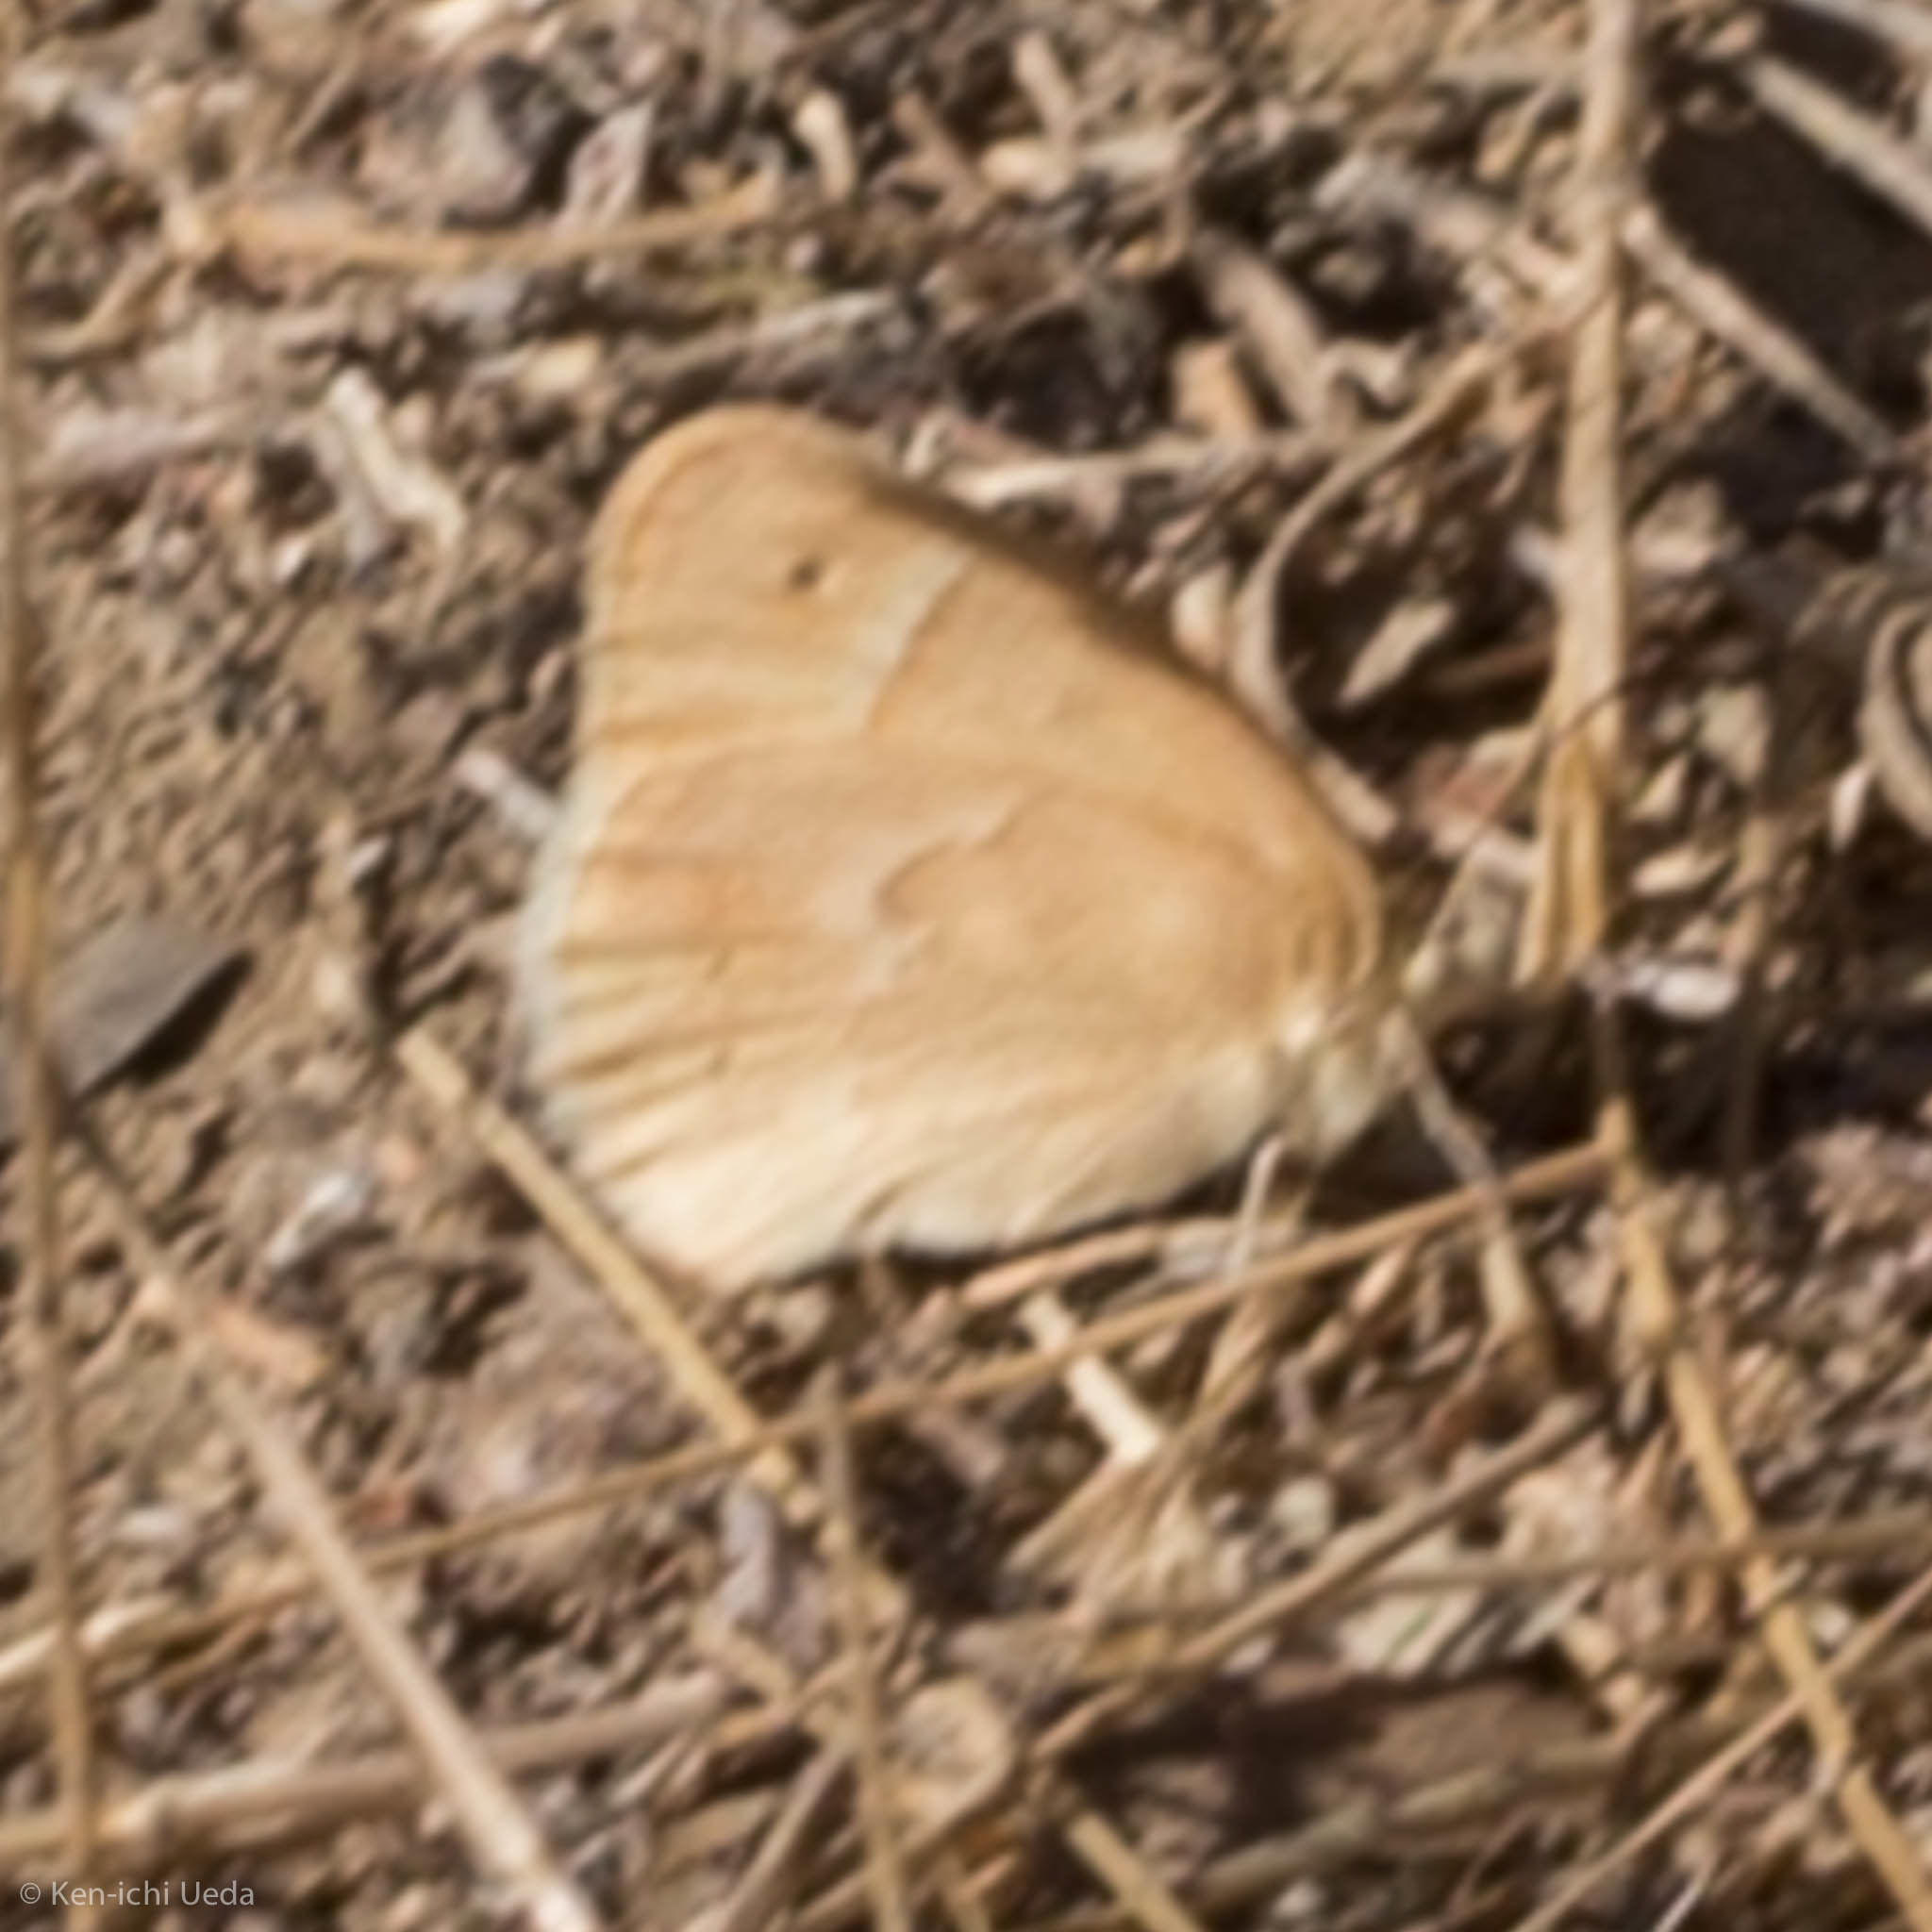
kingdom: Animalia
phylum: Arthropoda
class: Insecta
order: Lepidoptera
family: Nymphalidae
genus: Coenonympha
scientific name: Coenonympha california
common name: Common ringlet
